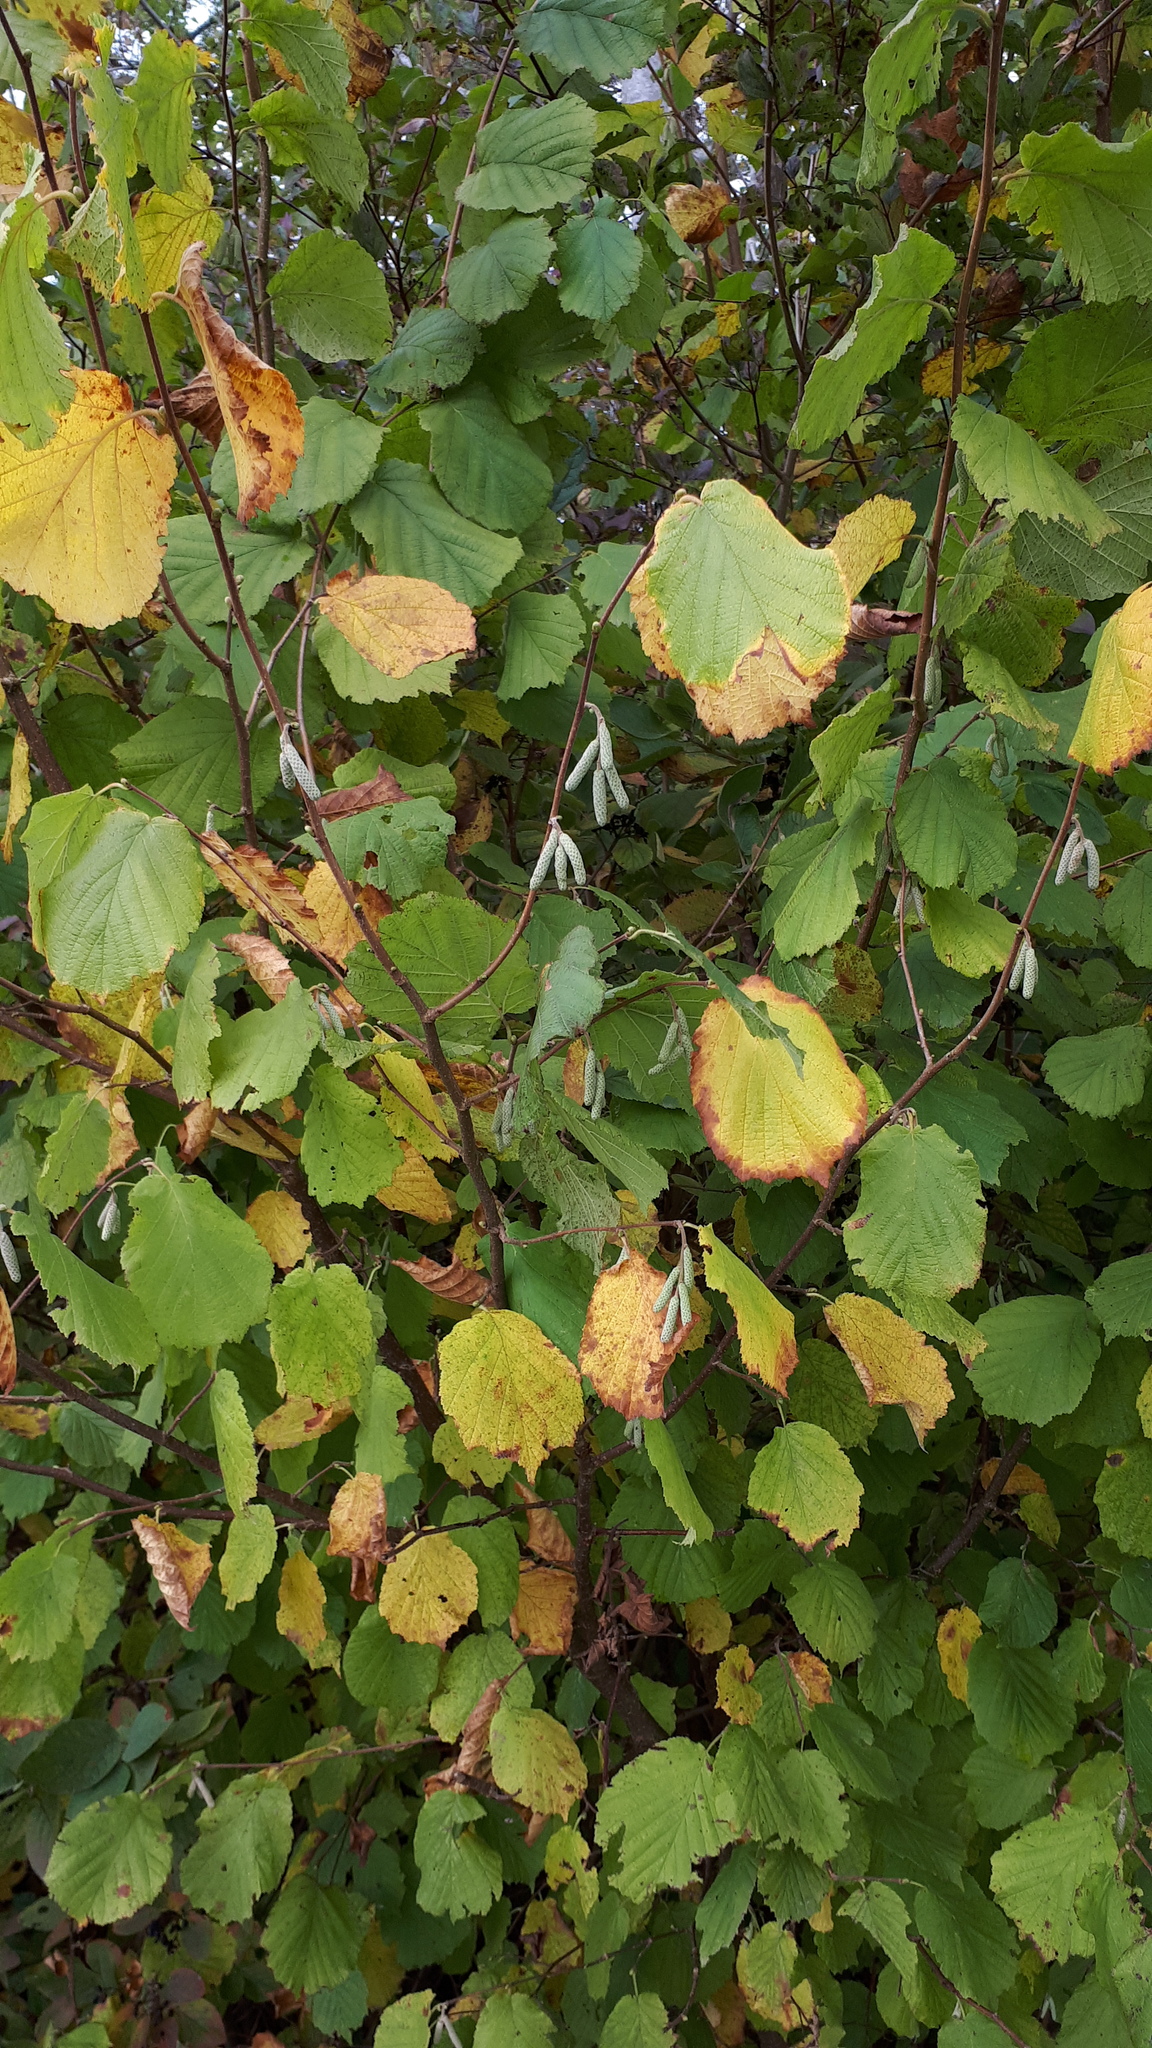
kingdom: Plantae
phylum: Tracheophyta
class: Magnoliopsida
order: Fagales
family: Betulaceae
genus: Corylus
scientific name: Corylus avellana
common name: European hazel
